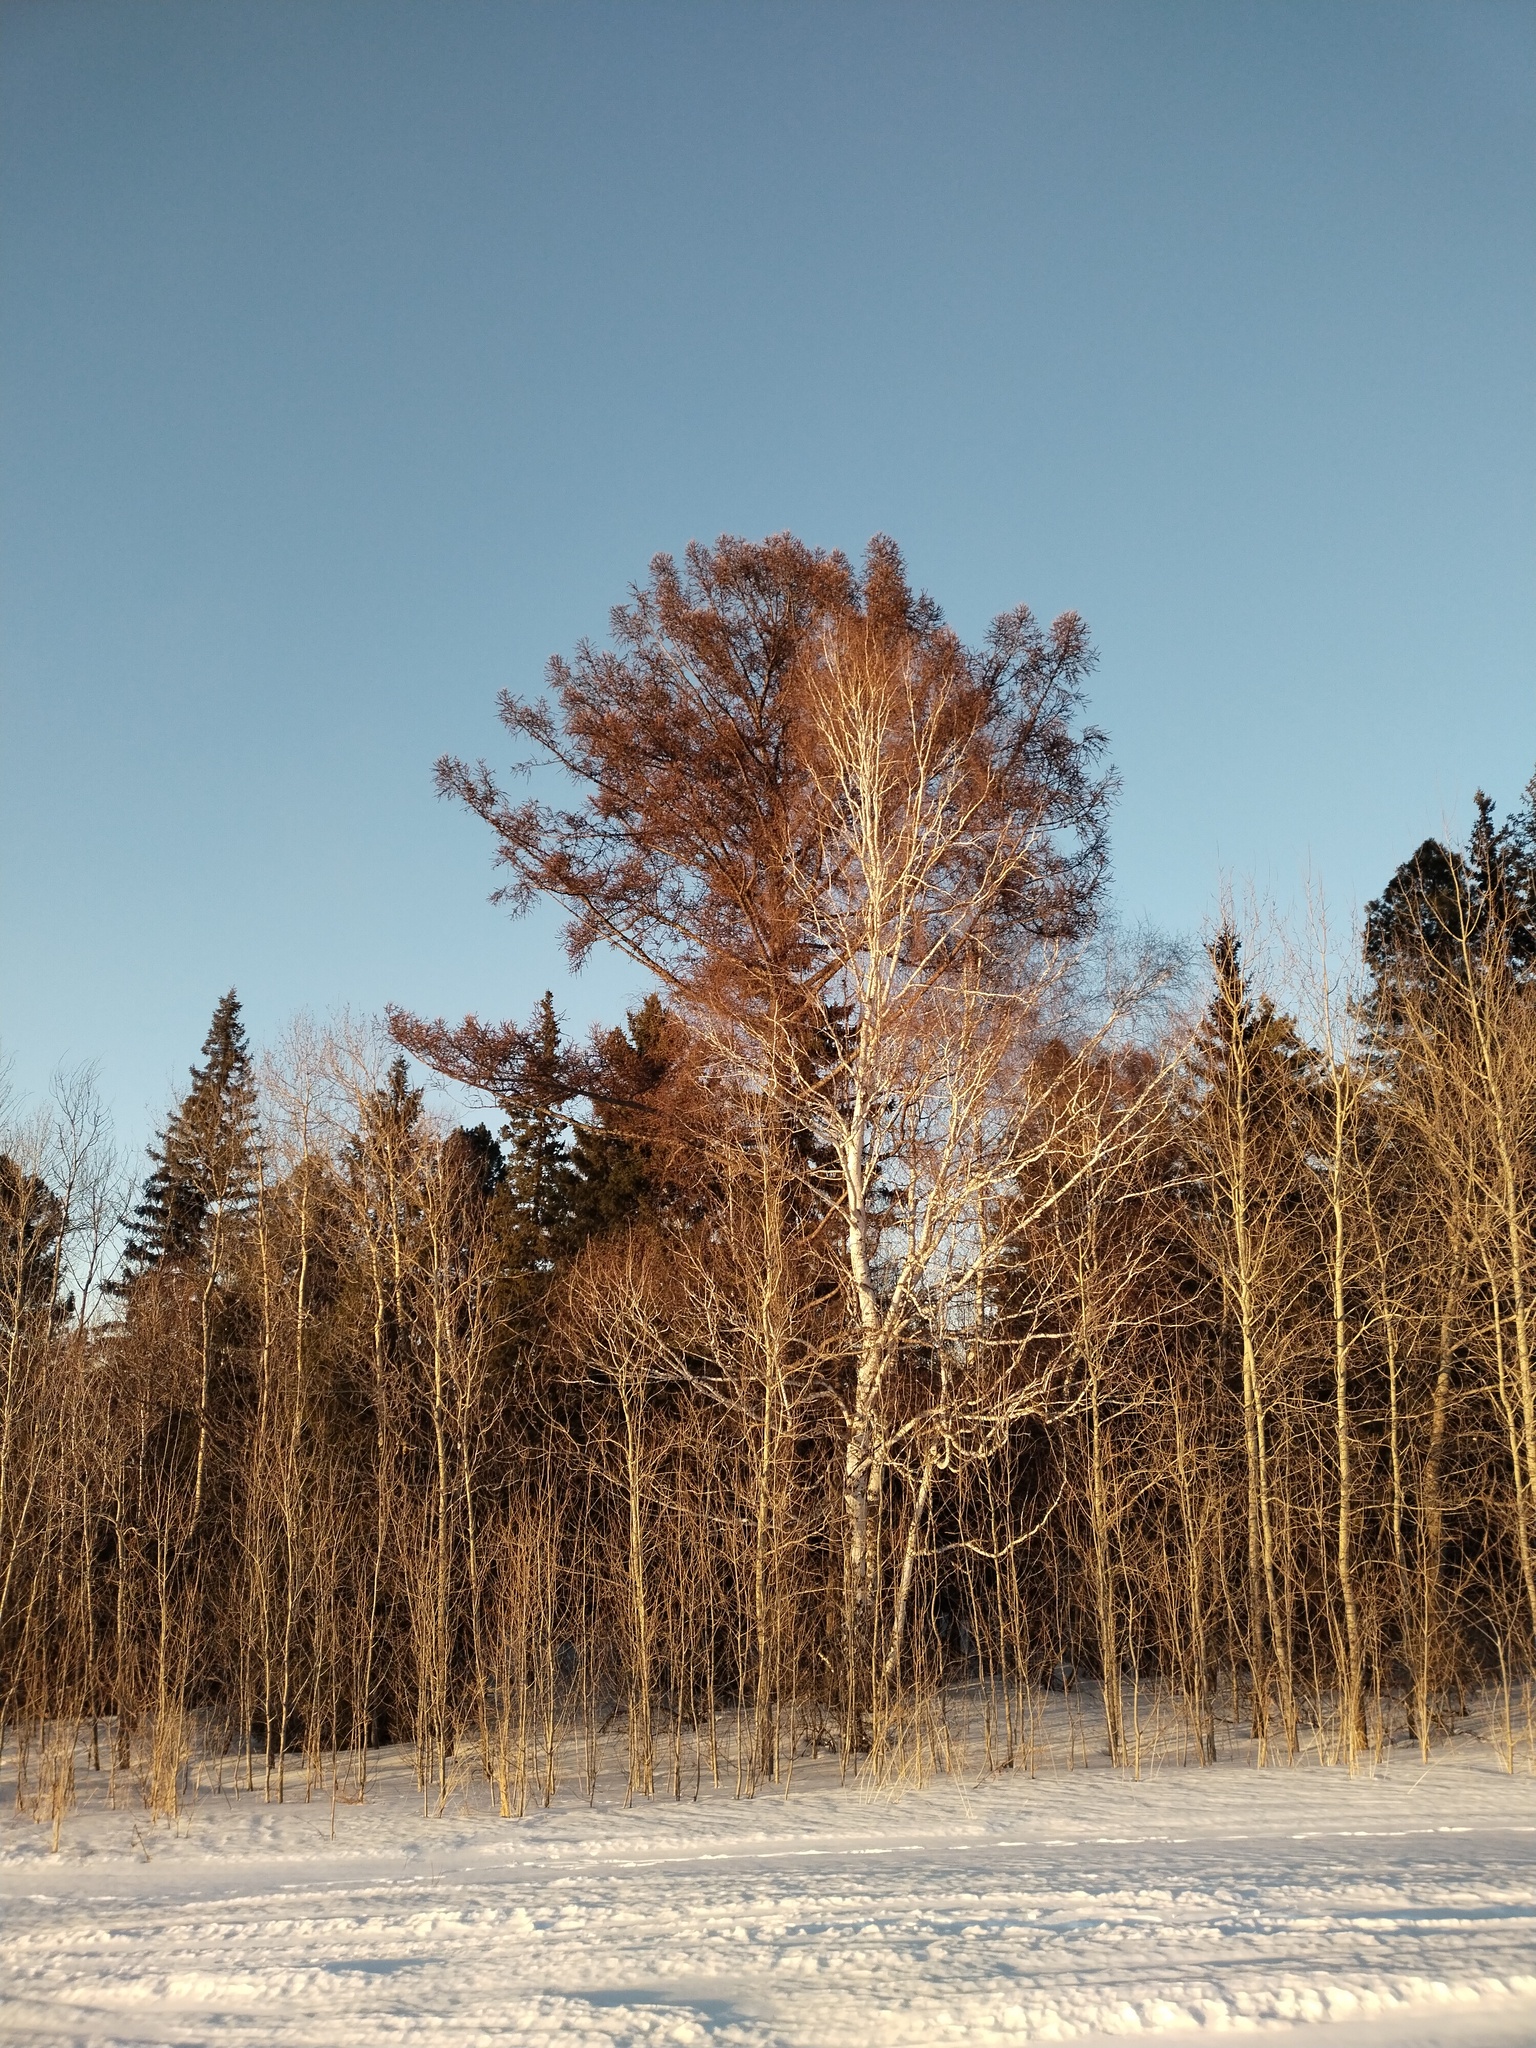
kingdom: Plantae
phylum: Tracheophyta
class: Pinopsida
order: Pinales
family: Pinaceae
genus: Larix
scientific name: Larix sibirica
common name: Siberian larch
